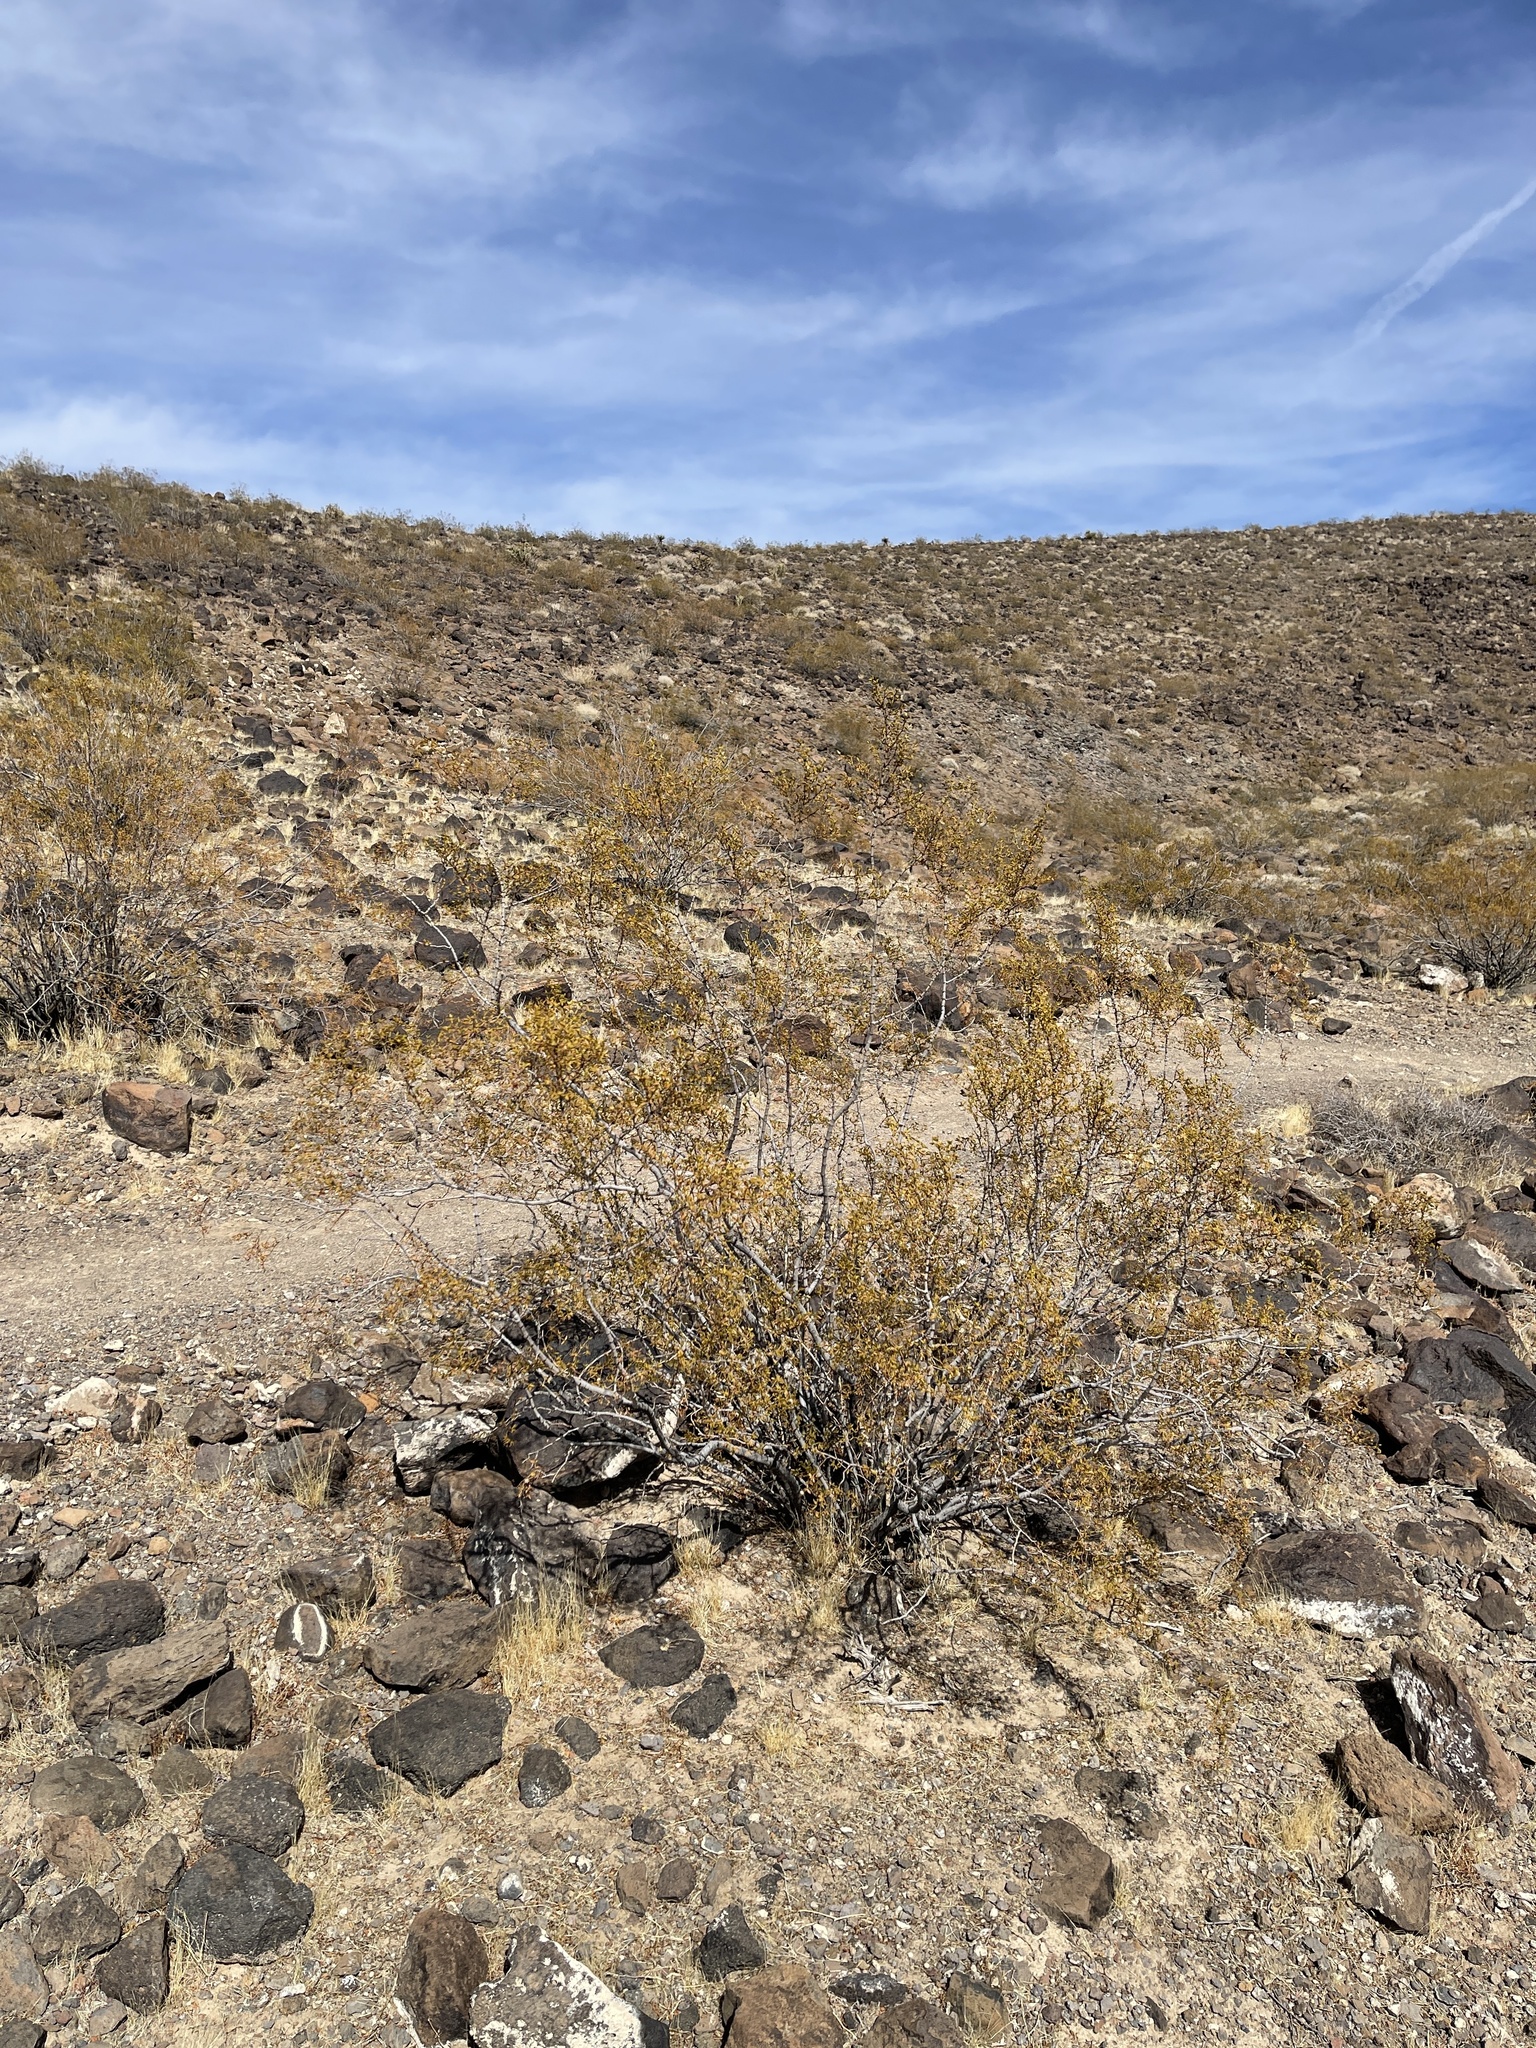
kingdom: Plantae
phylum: Tracheophyta
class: Magnoliopsida
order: Zygophyllales
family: Zygophyllaceae
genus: Larrea
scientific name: Larrea tridentata
